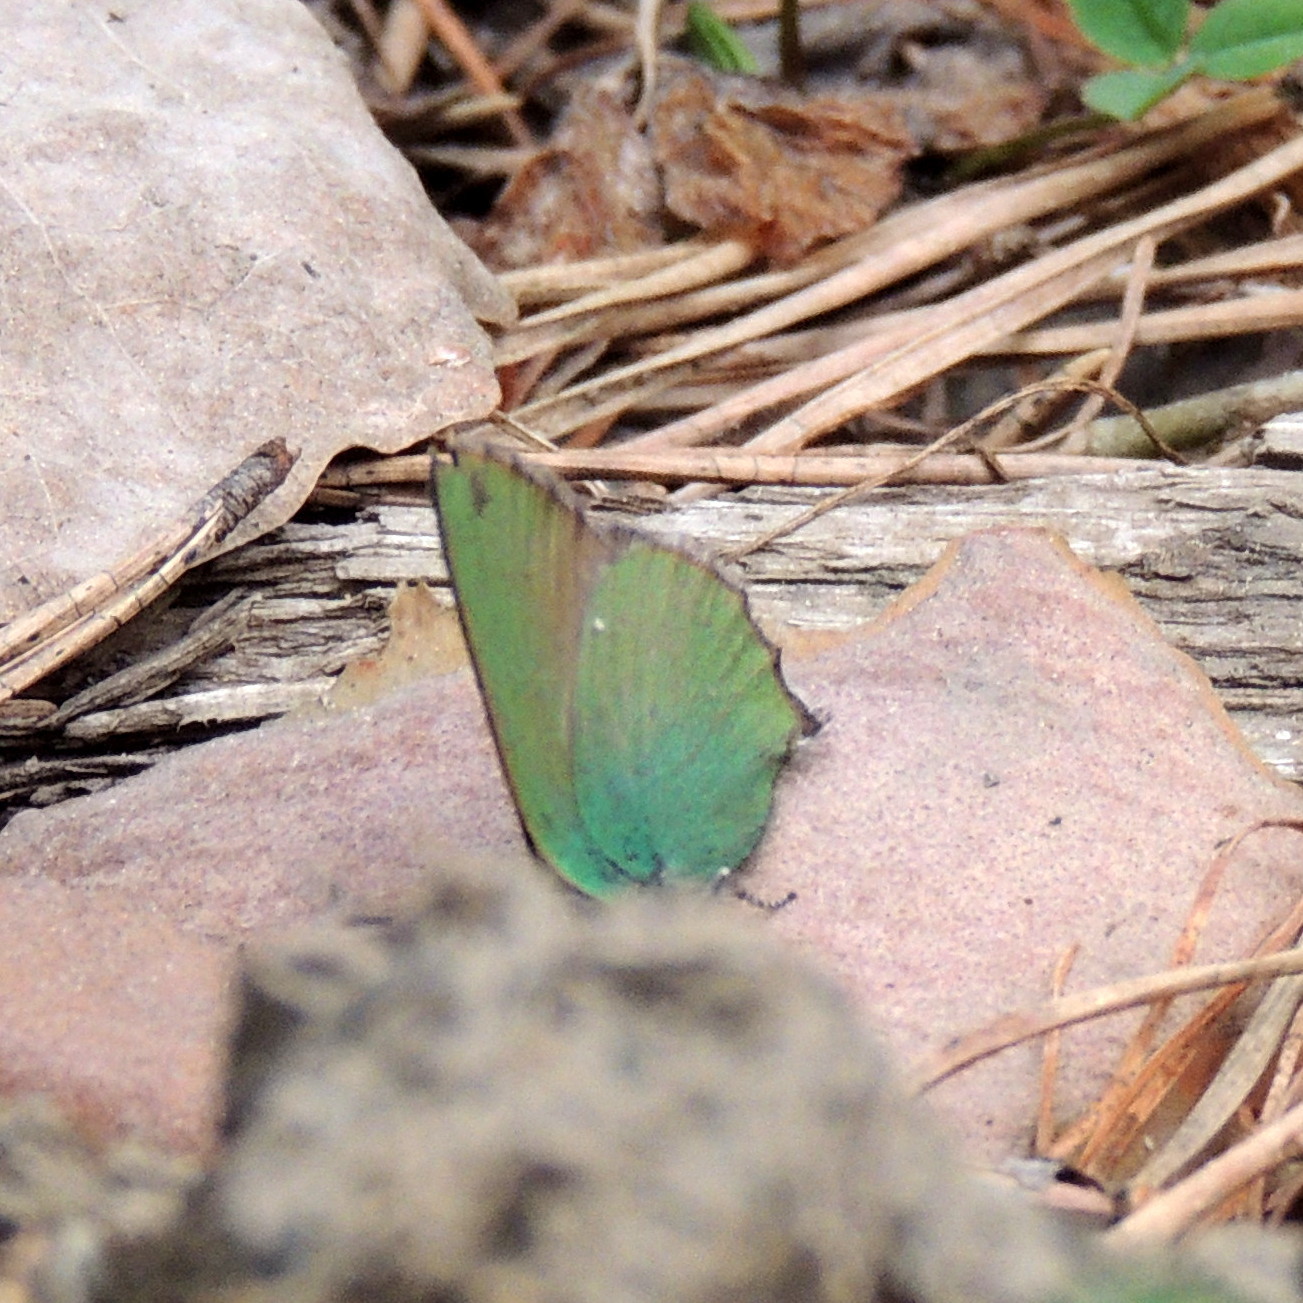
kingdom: Animalia
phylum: Arthropoda
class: Insecta
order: Lepidoptera
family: Lycaenidae
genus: Callophrys
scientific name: Callophrys rubi
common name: Green hairstreak
